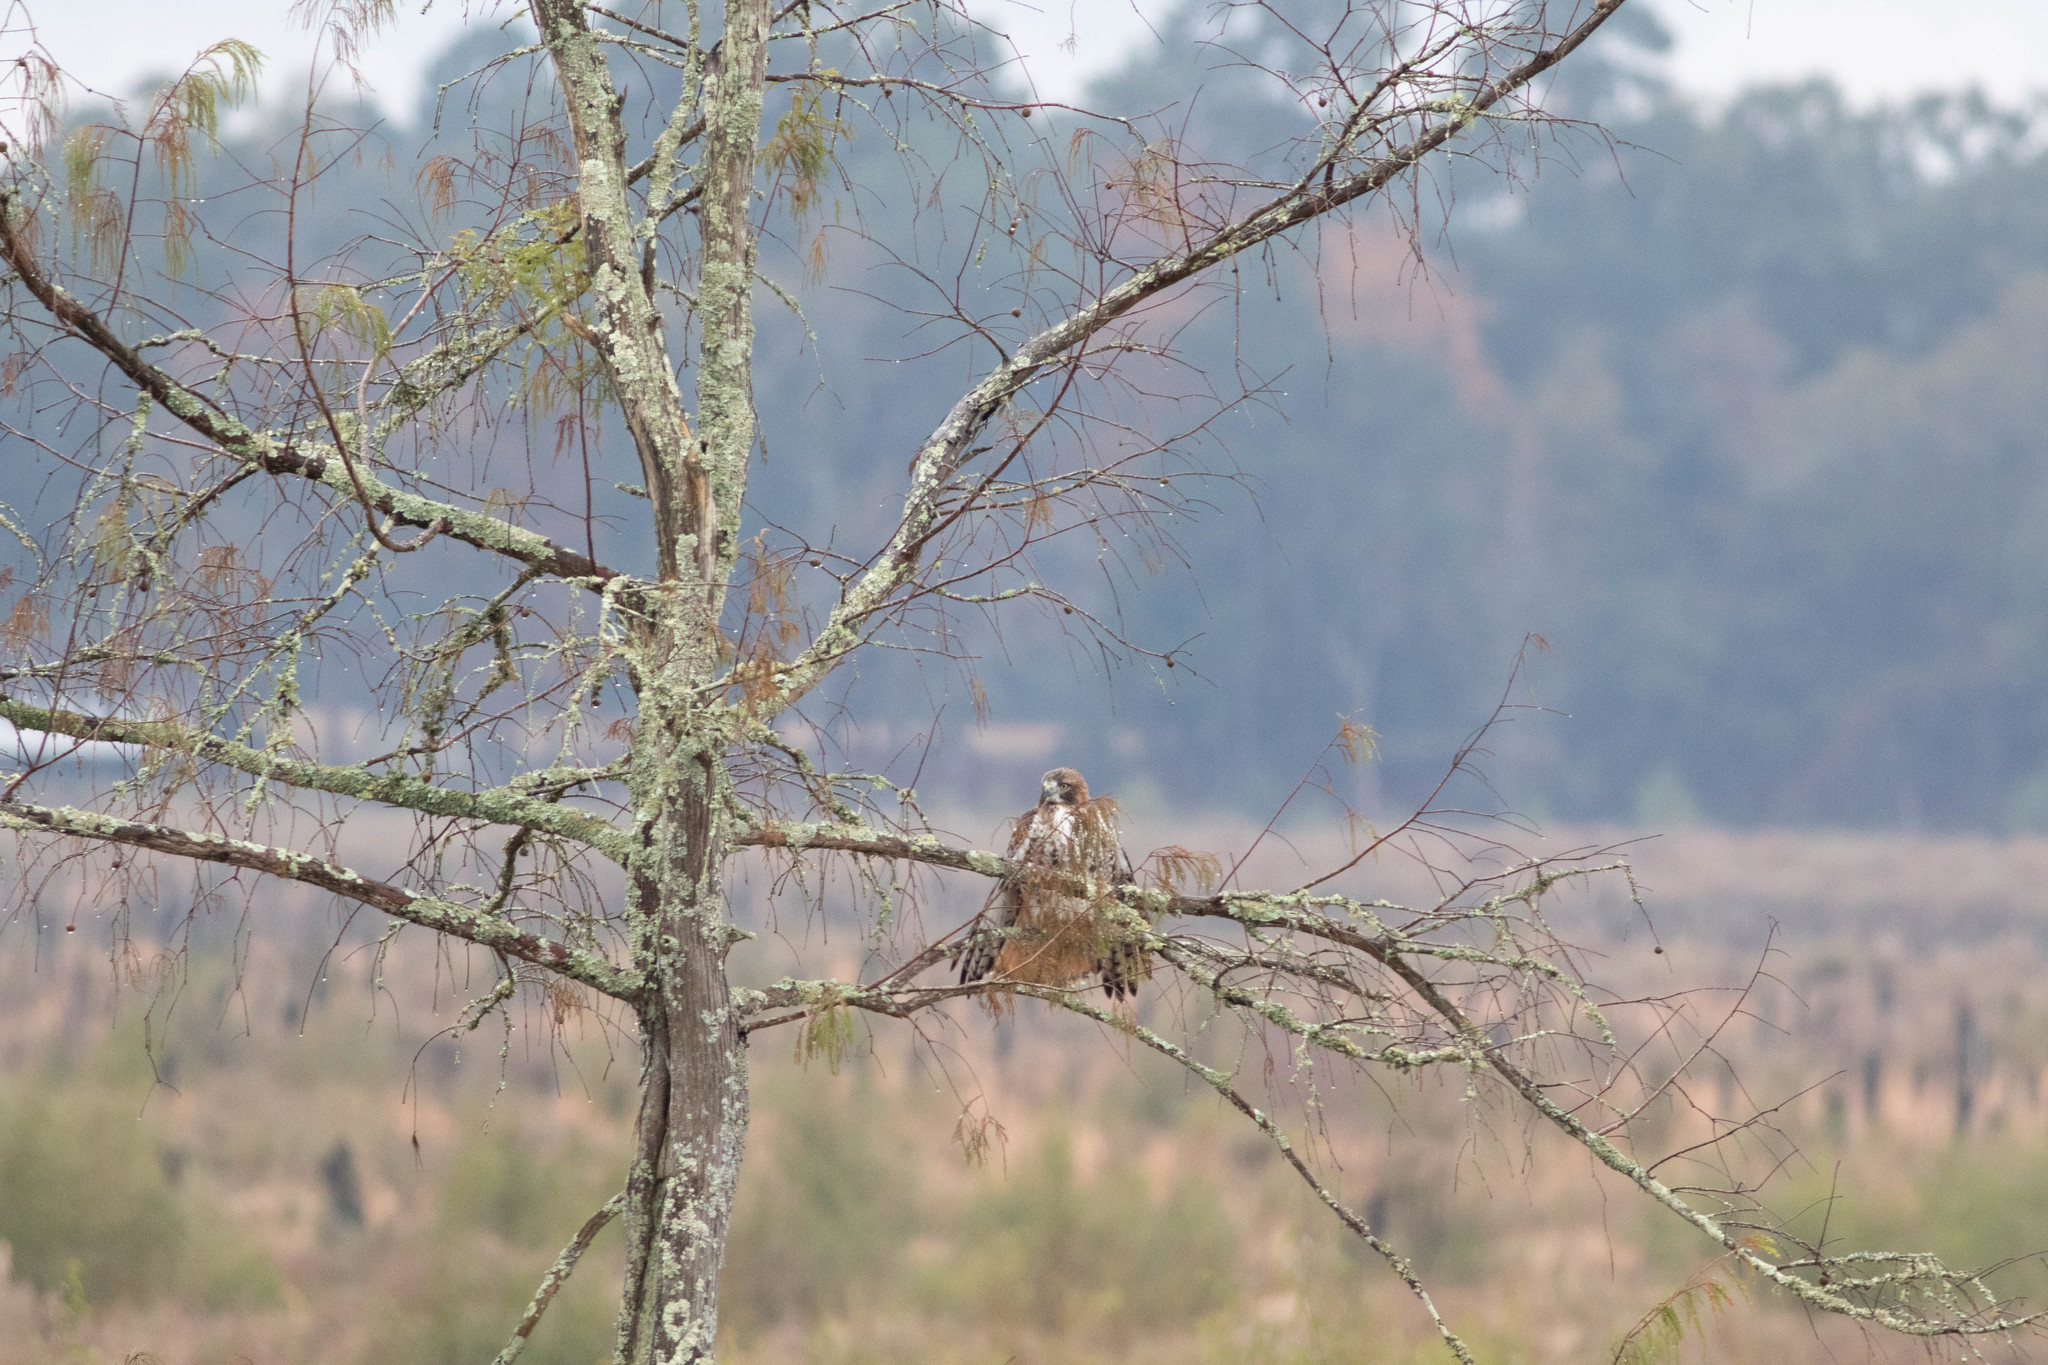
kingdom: Animalia
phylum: Chordata
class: Aves
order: Accipitriformes
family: Accipitridae
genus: Buteo
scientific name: Buteo jamaicensis
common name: Red-tailed hawk
